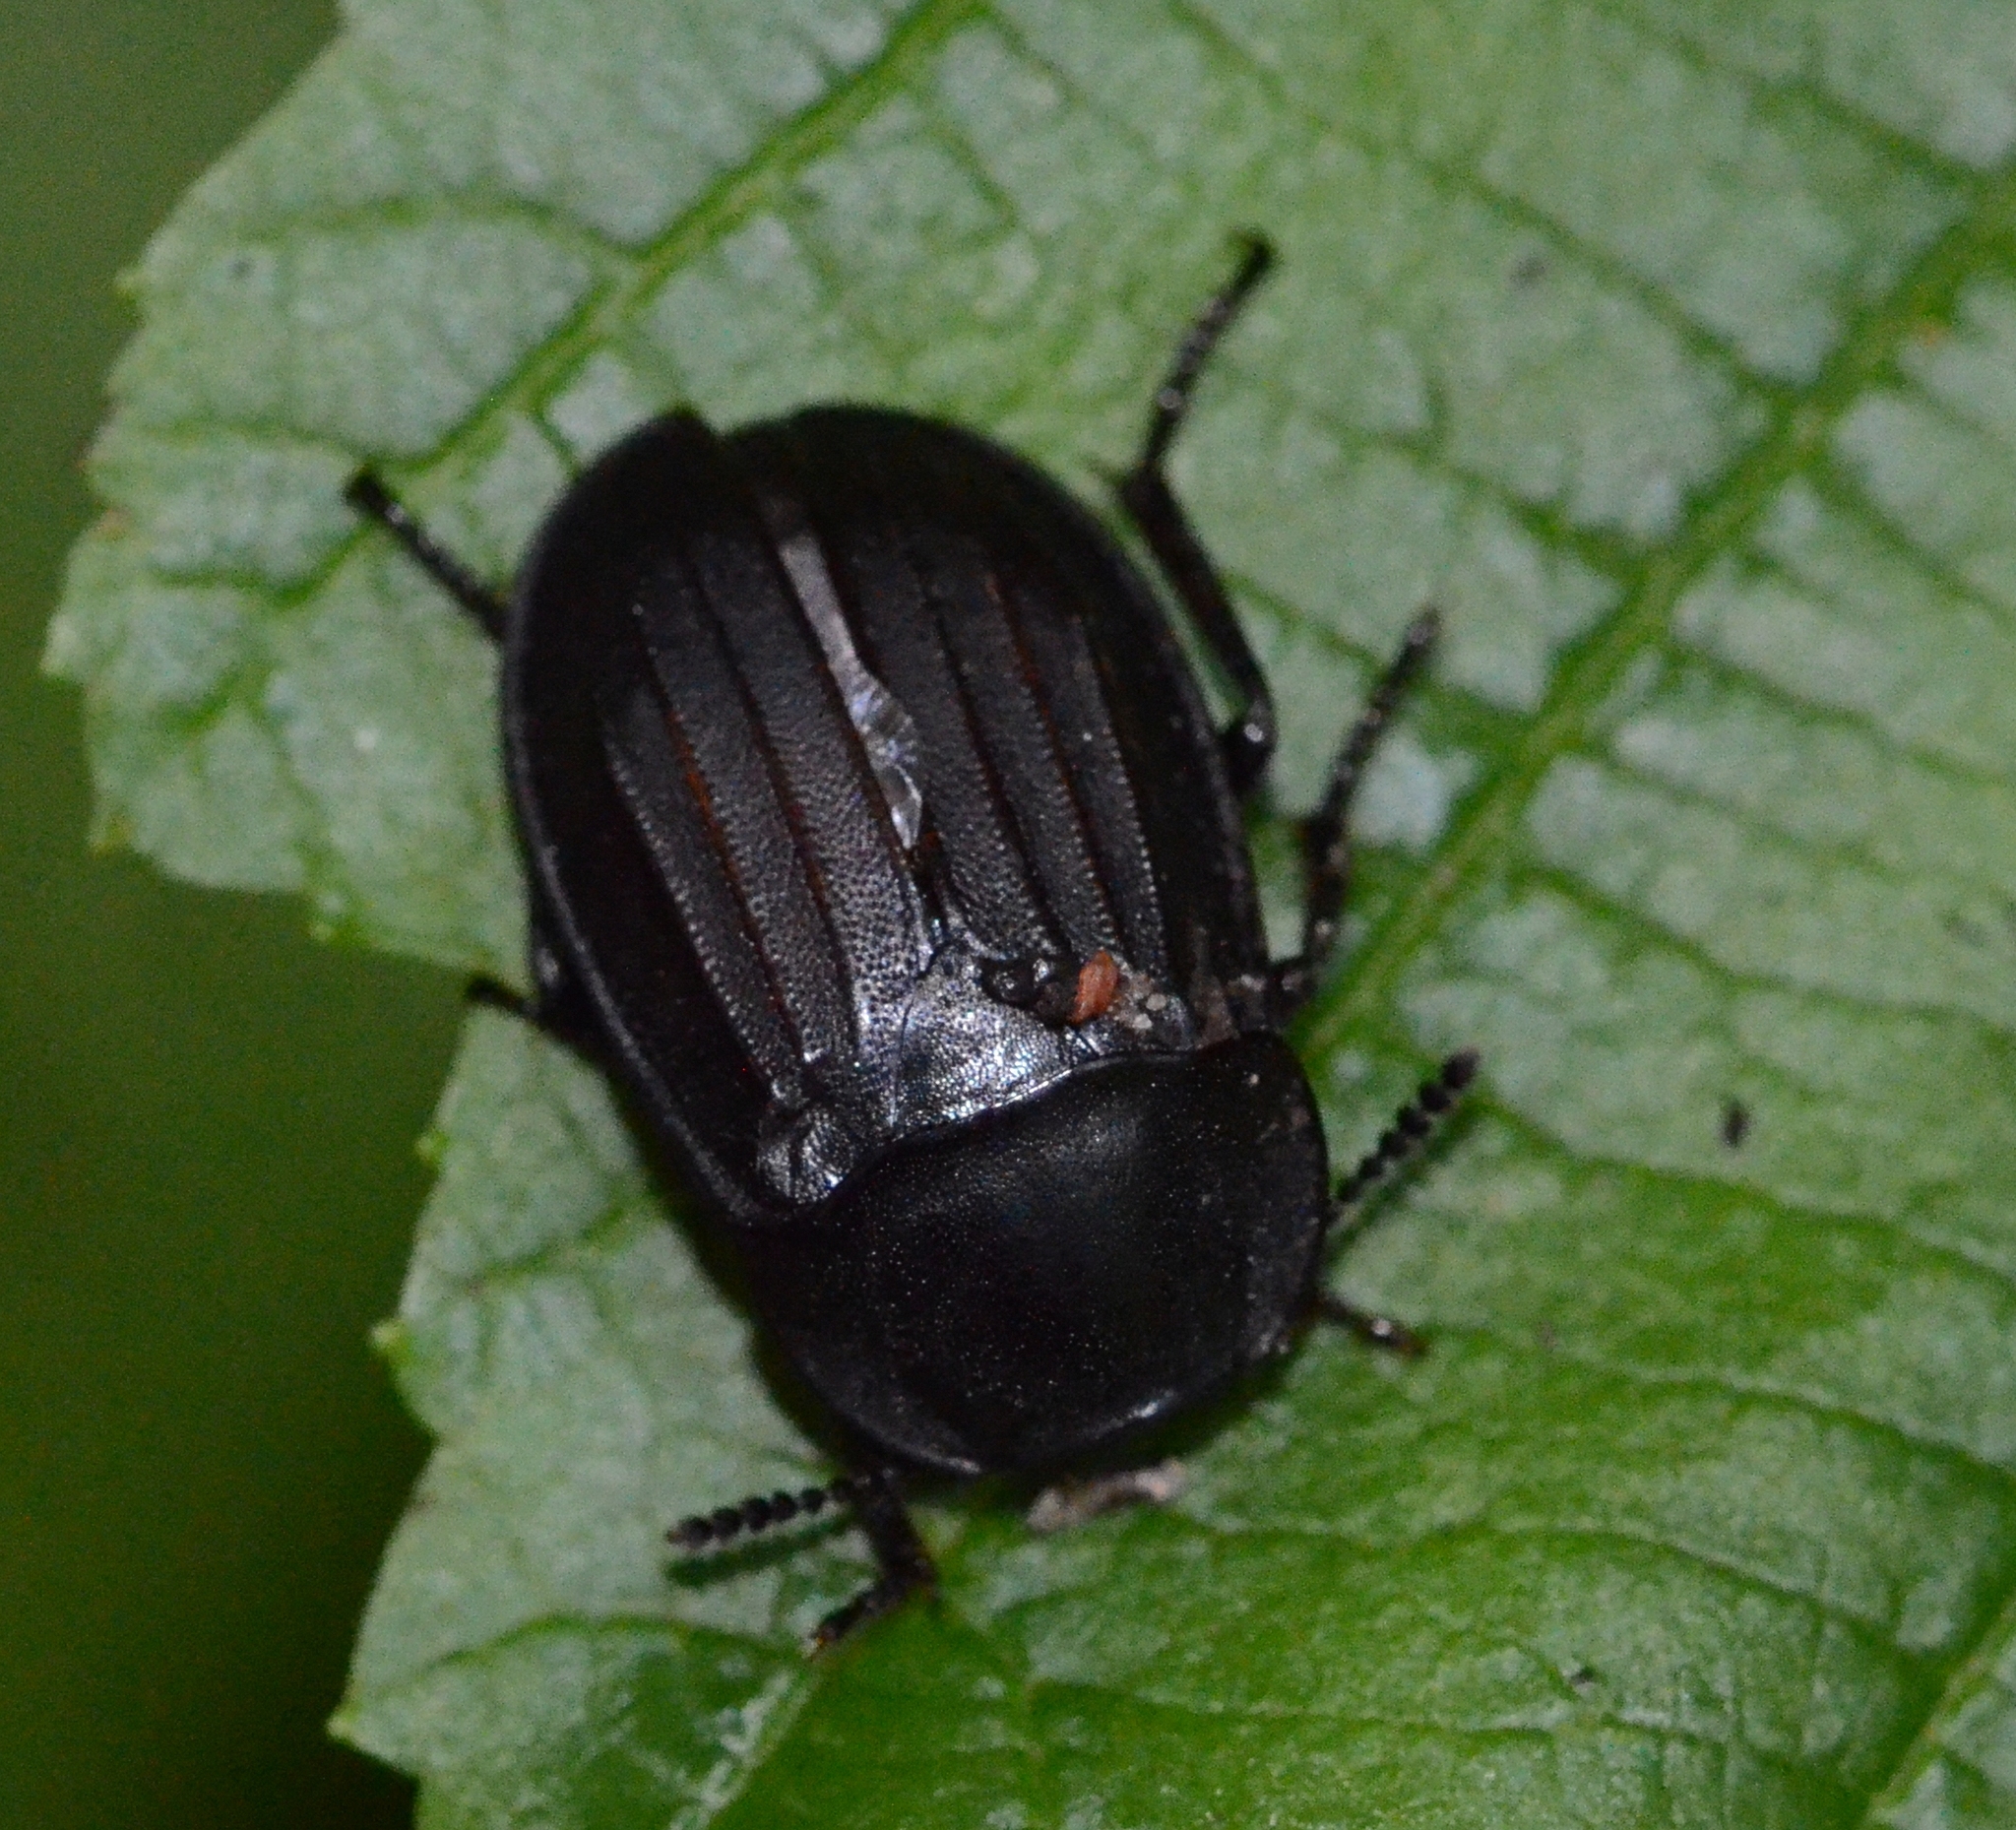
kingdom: Animalia
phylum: Arthropoda
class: Insecta
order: Coleoptera
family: Staphylinidae
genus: Silpha
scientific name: Silpha tristis
